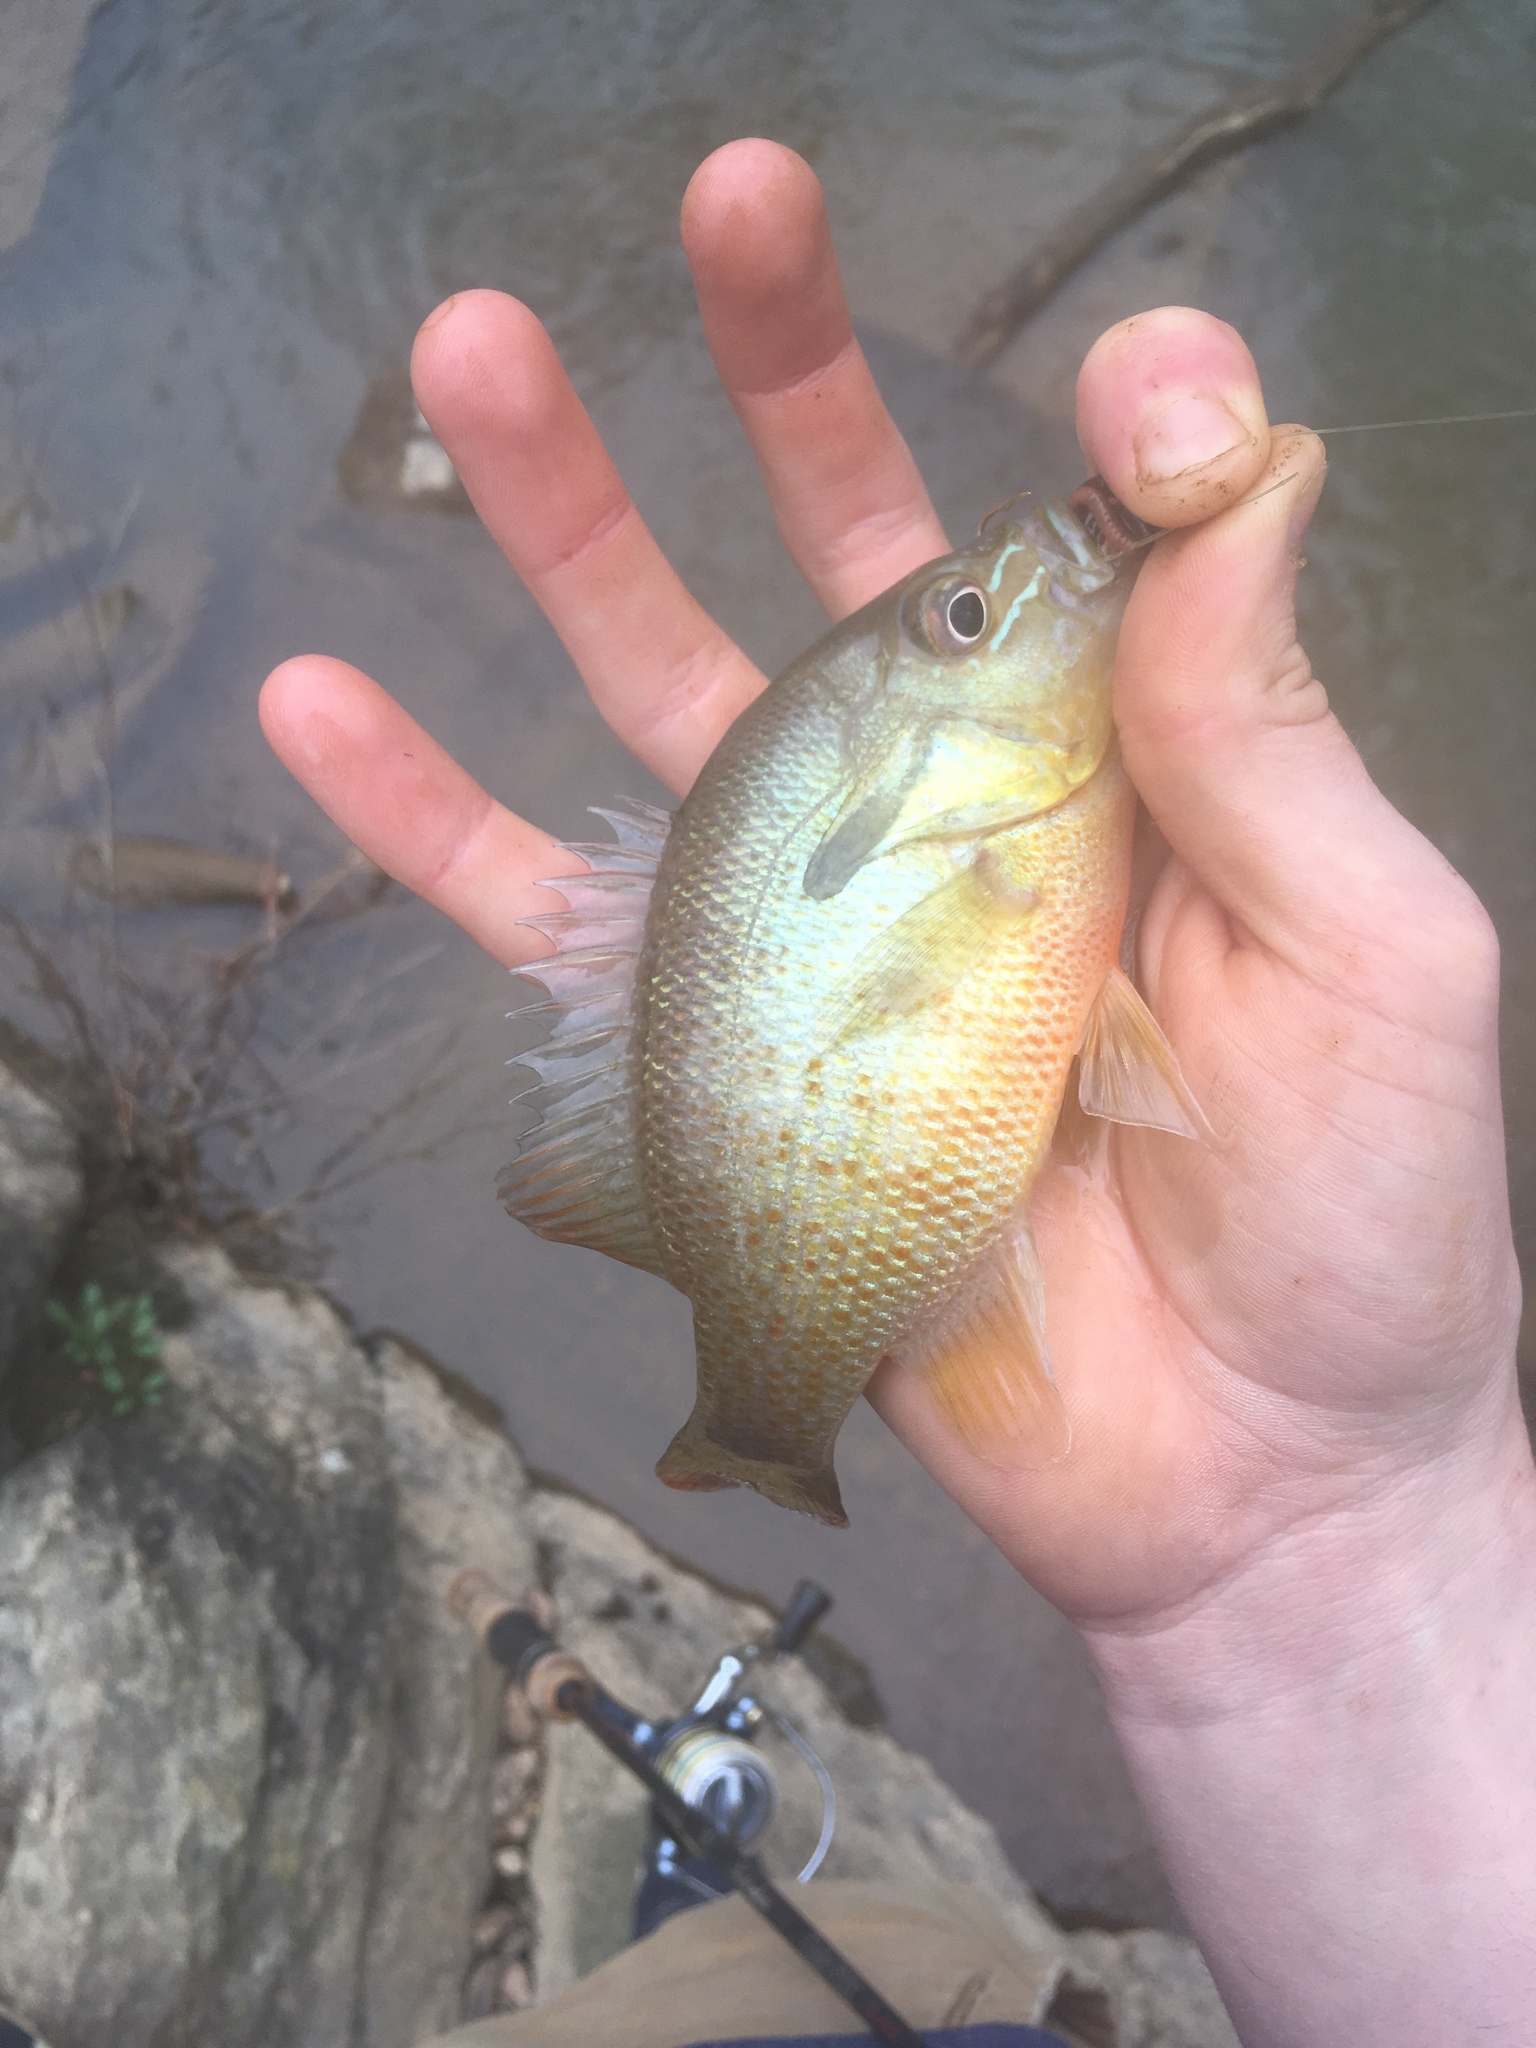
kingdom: Animalia
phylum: Chordata
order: Perciformes
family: Centrarchidae
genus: Lepomis
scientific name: Lepomis auritus
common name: Redbreast sunfish
